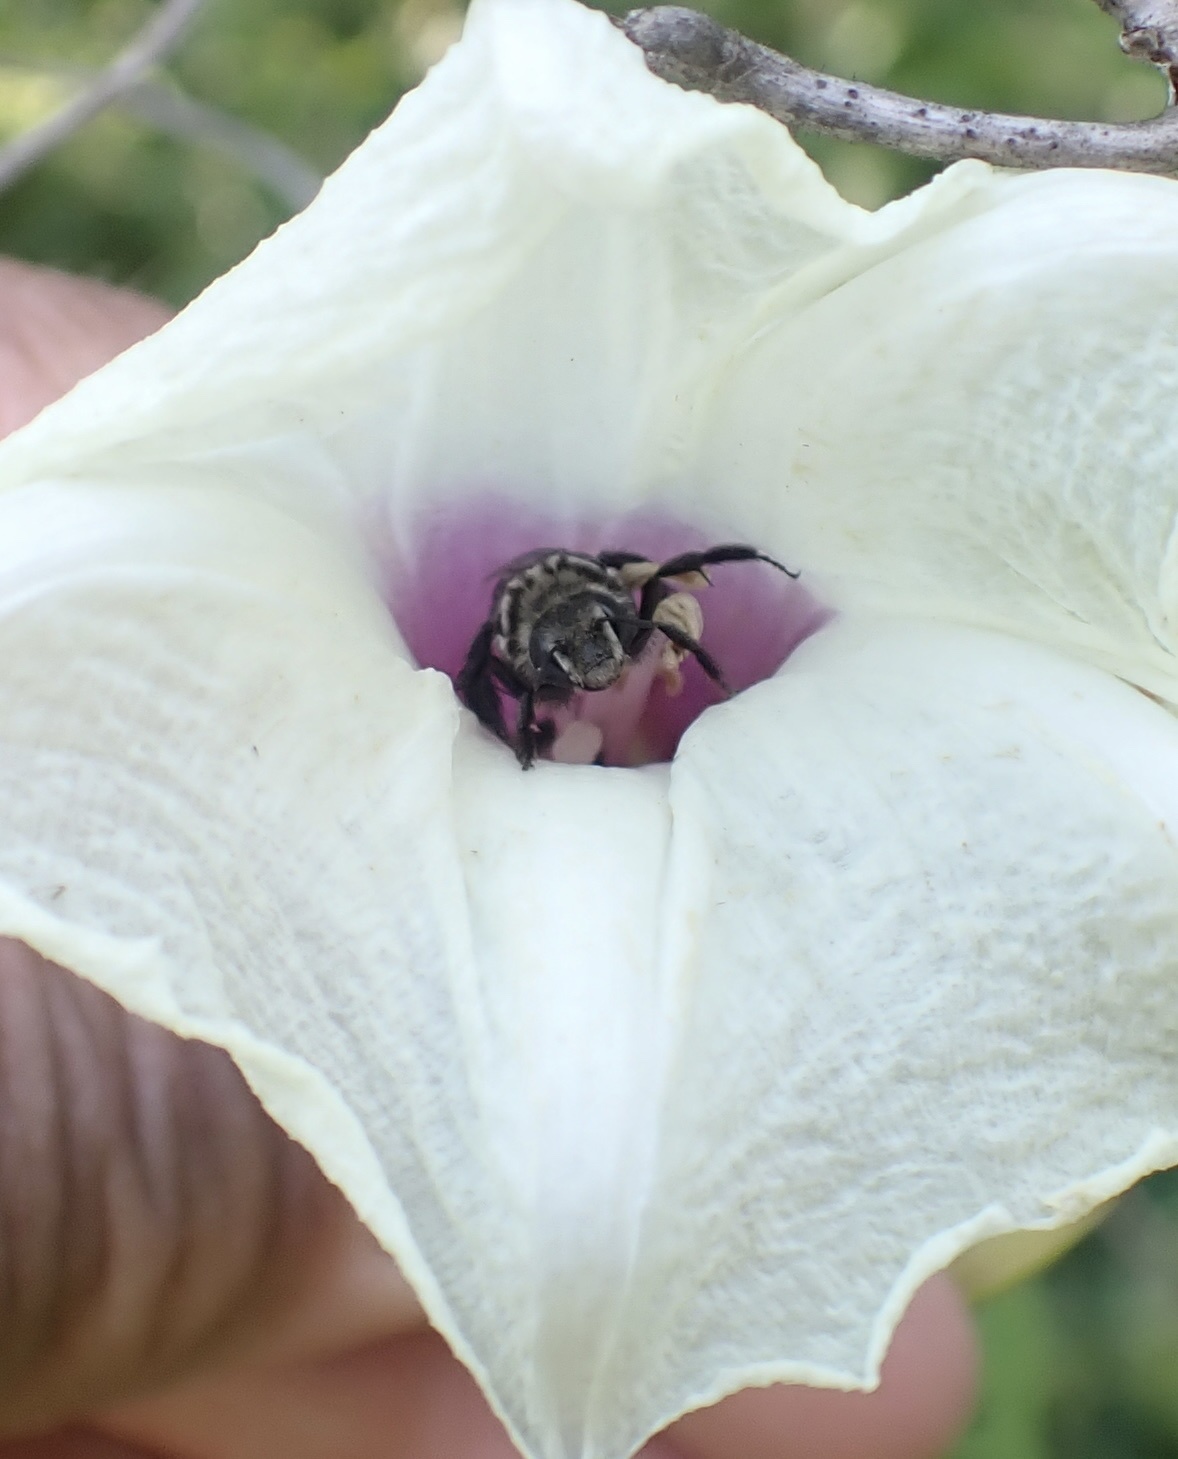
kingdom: Animalia
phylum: Arthropoda
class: Insecta
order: Hymenoptera
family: Apidae
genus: Melitoma
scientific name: Melitoma taurea
